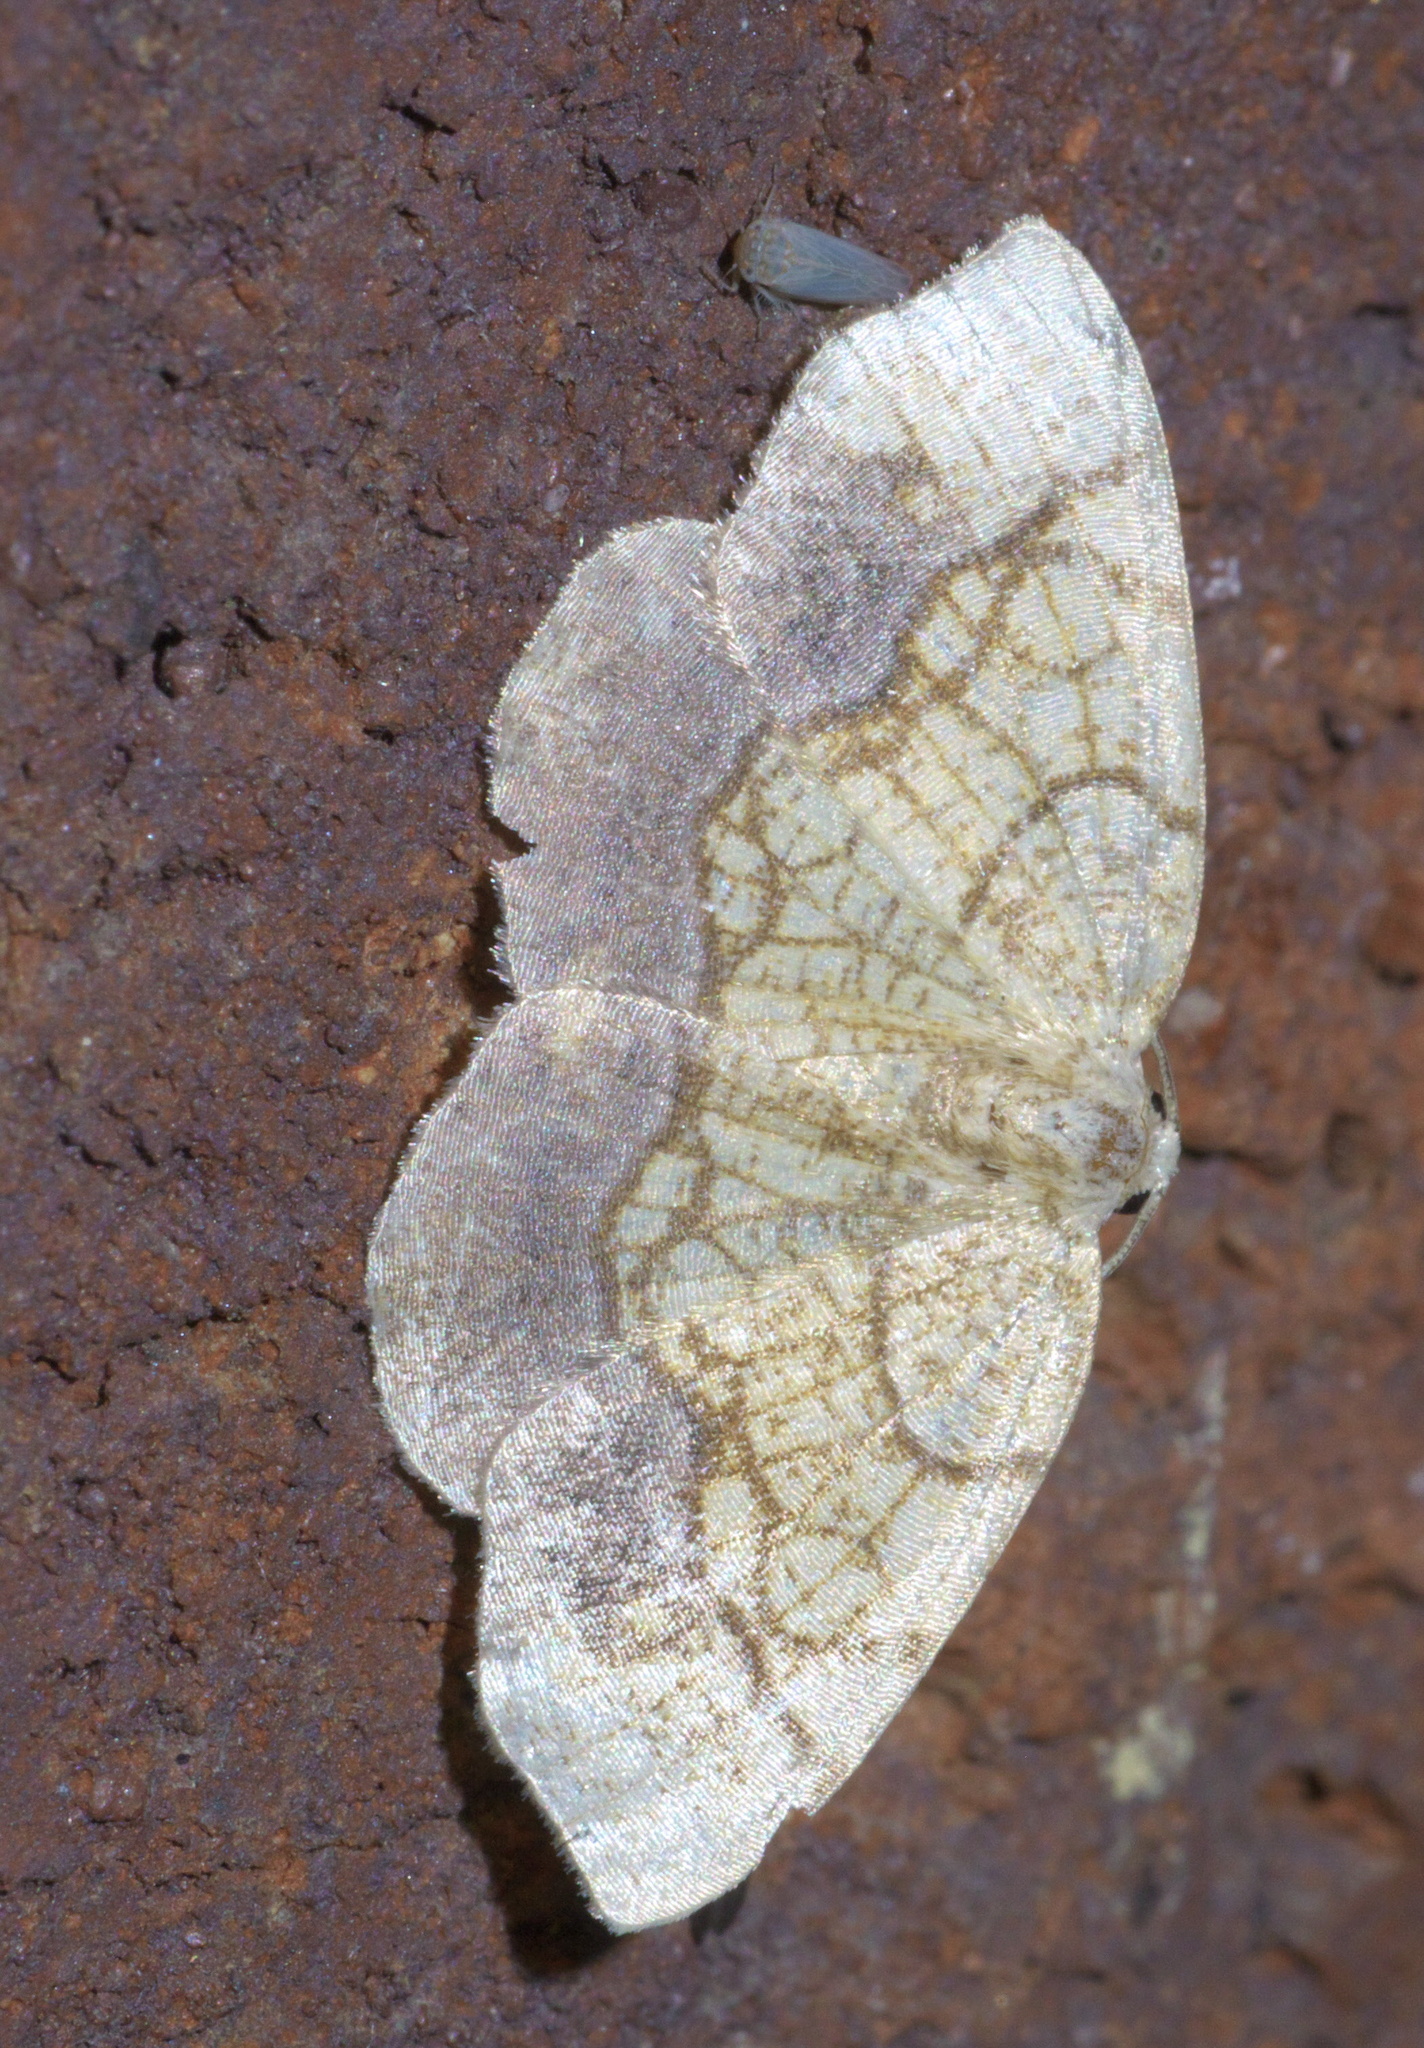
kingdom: Animalia
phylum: Arthropoda
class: Insecta
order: Lepidoptera
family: Geometridae
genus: Nematocampa
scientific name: Nematocampa resistaria
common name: Horned spanworm moth
